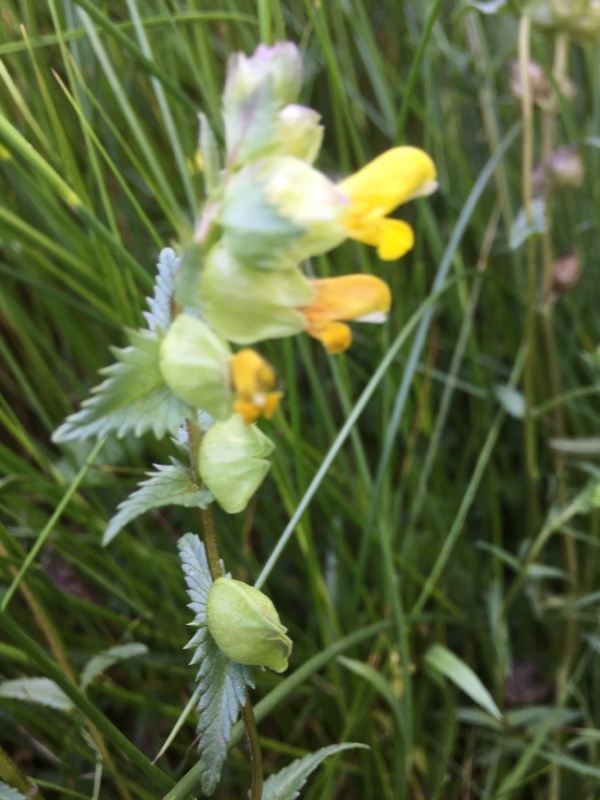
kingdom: Plantae
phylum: Tracheophyta
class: Magnoliopsida
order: Lamiales
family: Orobanchaceae
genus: Rhinanthus
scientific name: Rhinanthus minor
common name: Yellow-rattle
